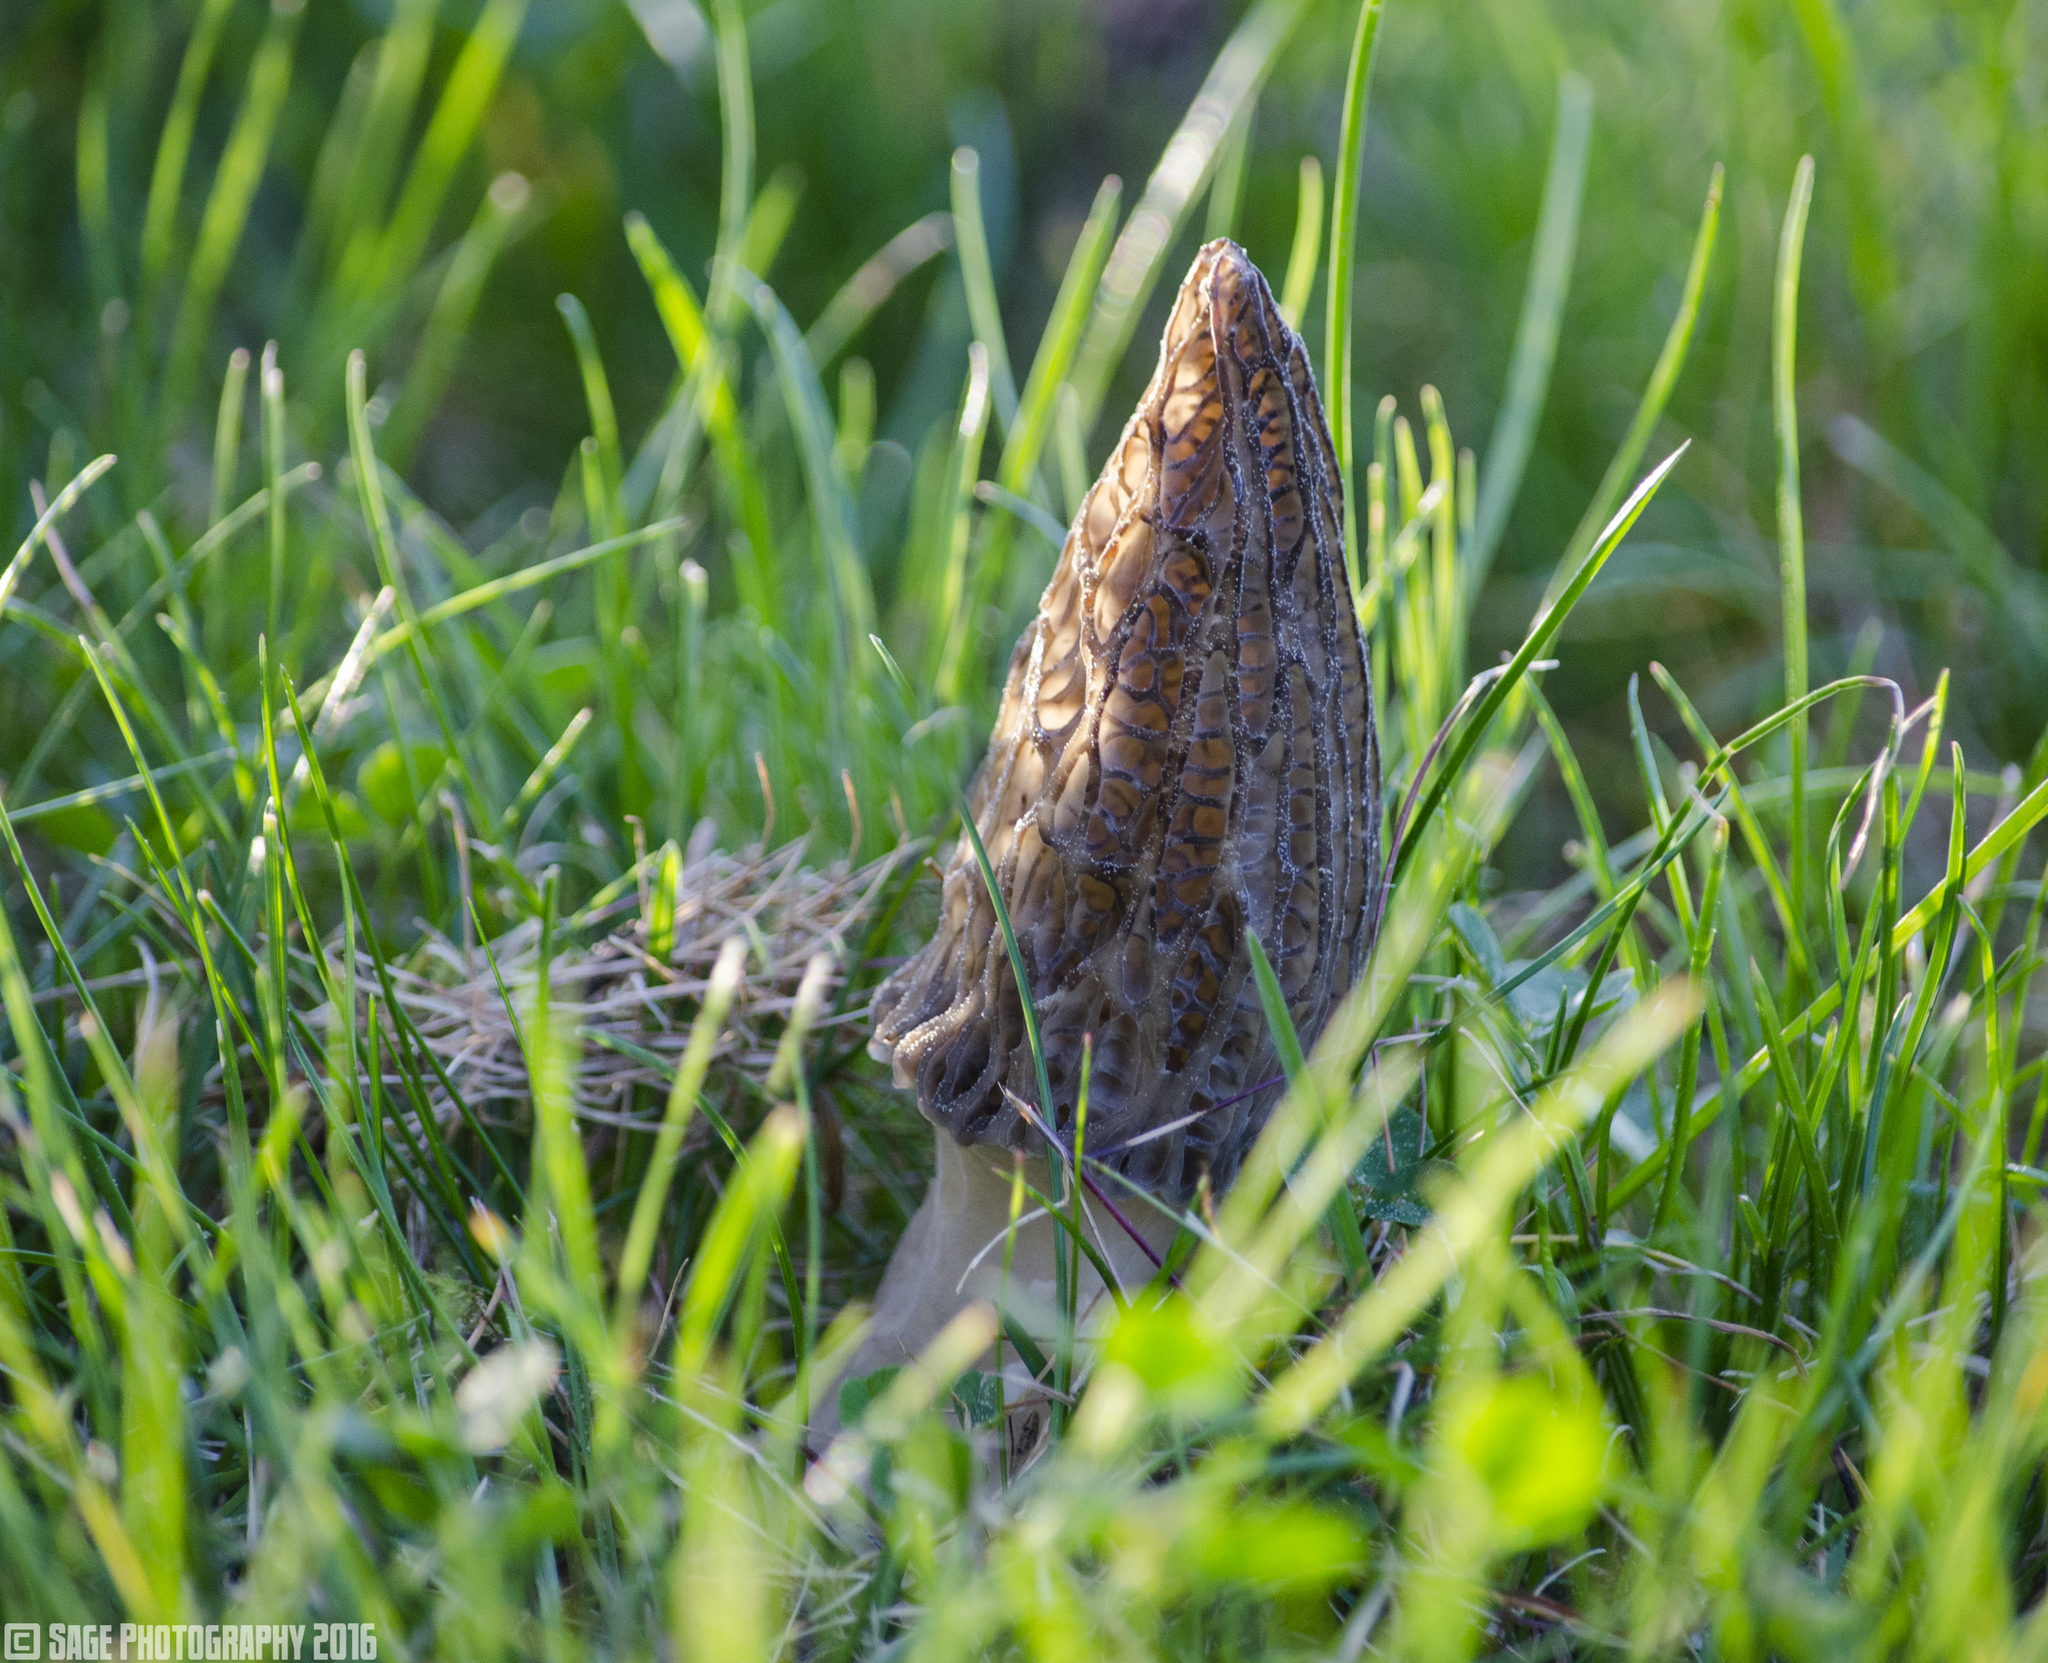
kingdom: Fungi
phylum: Ascomycota
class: Pezizomycetes
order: Pezizales
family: Morchellaceae
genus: Morchella
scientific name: Morchella importuna
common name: Landscaping black morel
